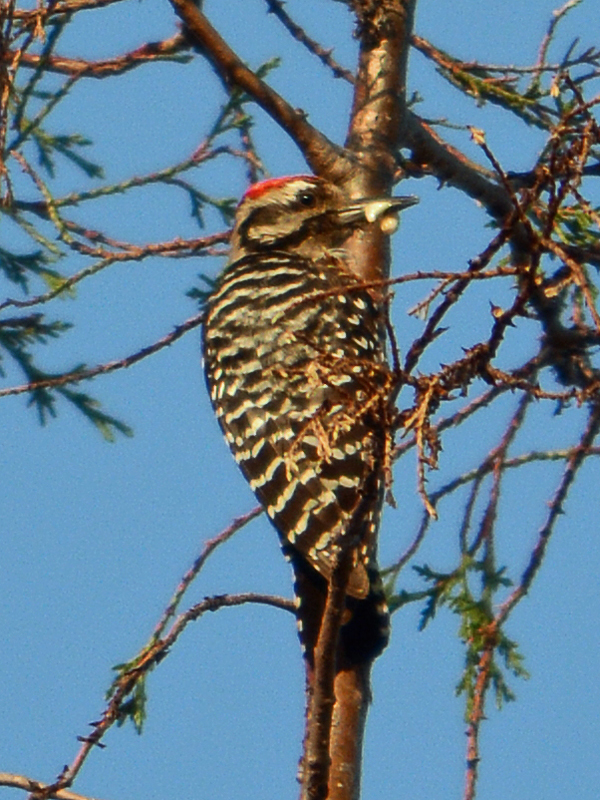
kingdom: Animalia
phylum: Chordata
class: Aves
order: Piciformes
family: Picidae
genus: Dryobates
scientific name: Dryobates scalaris
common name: Ladder-backed woodpecker
